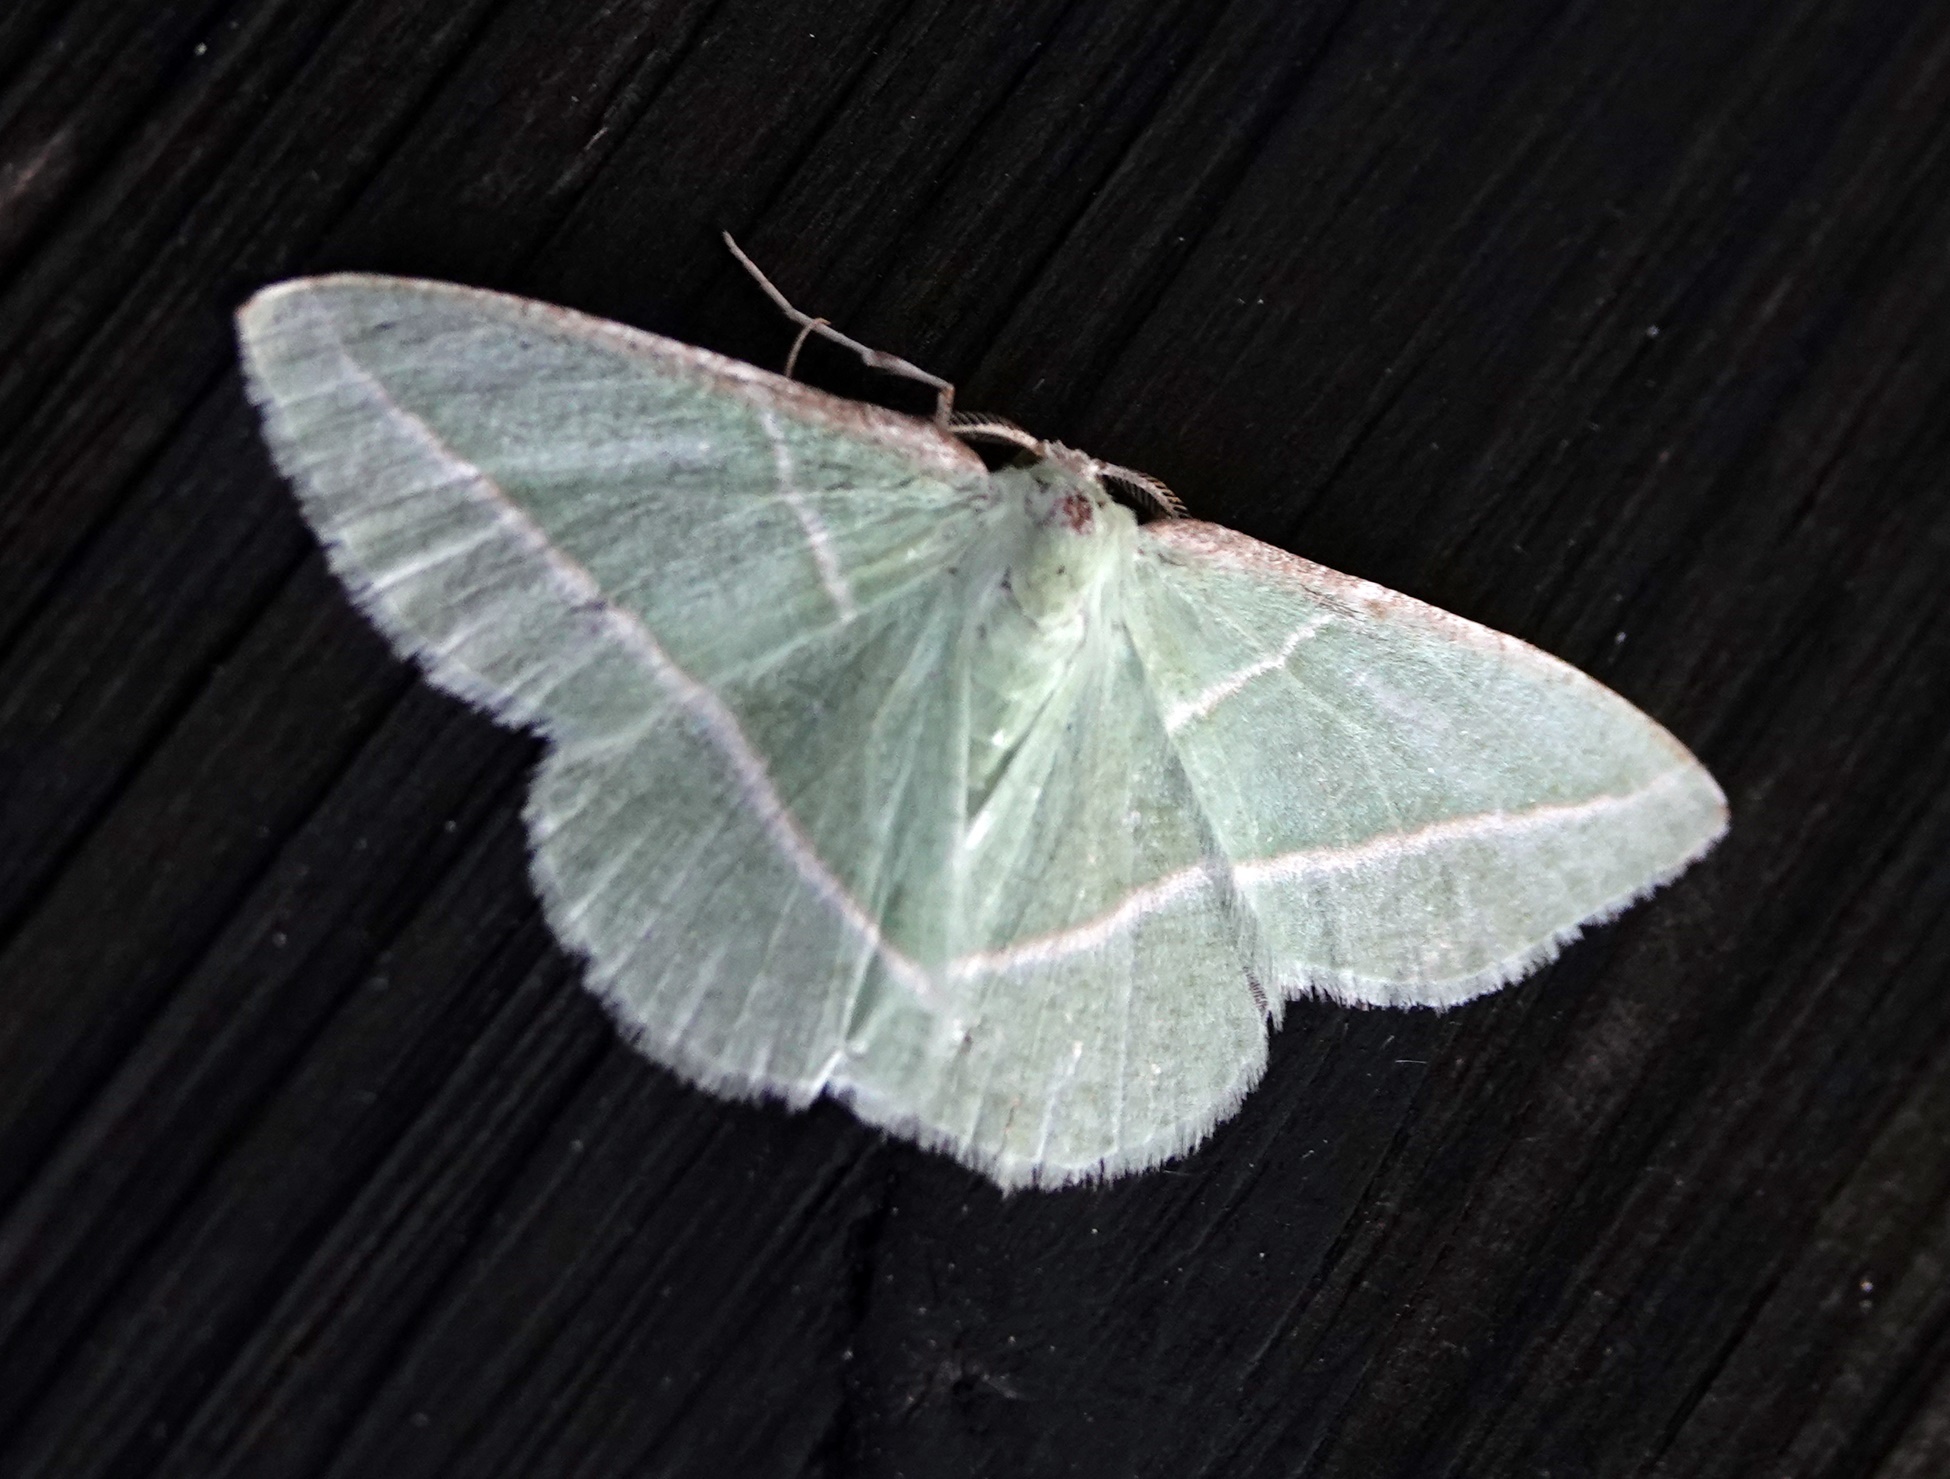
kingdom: Animalia
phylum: Arthropoda
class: Insecta
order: Lepidoptera
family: Geometridae
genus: Dichorda
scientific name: Dichorda rectaria
